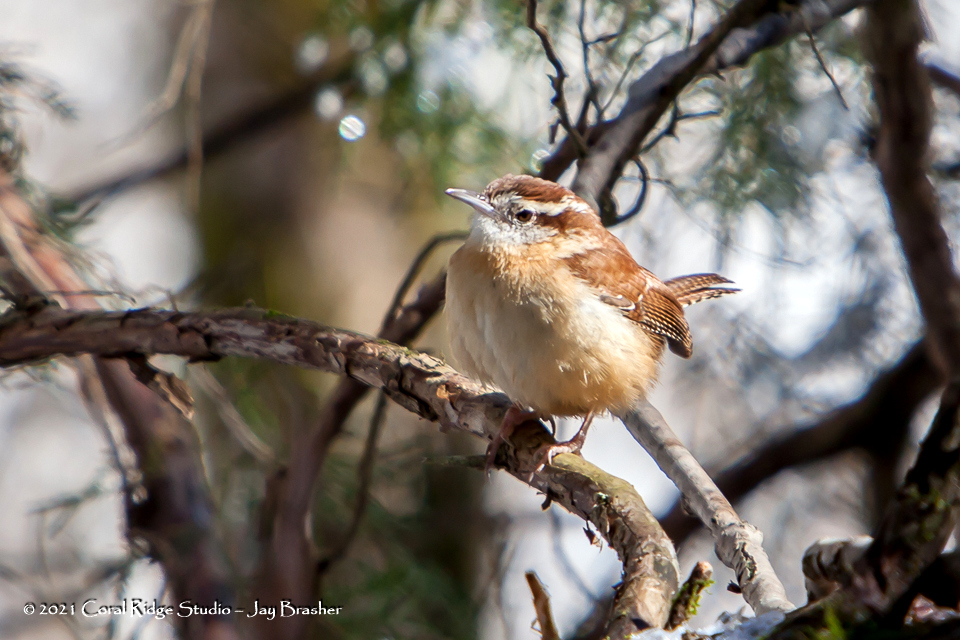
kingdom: Animalia
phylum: Chordata
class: Aves
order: Passeriformes
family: Troglodytidae
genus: Thryothorus
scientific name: Thryothorus ludovicianus
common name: Carolina wren
